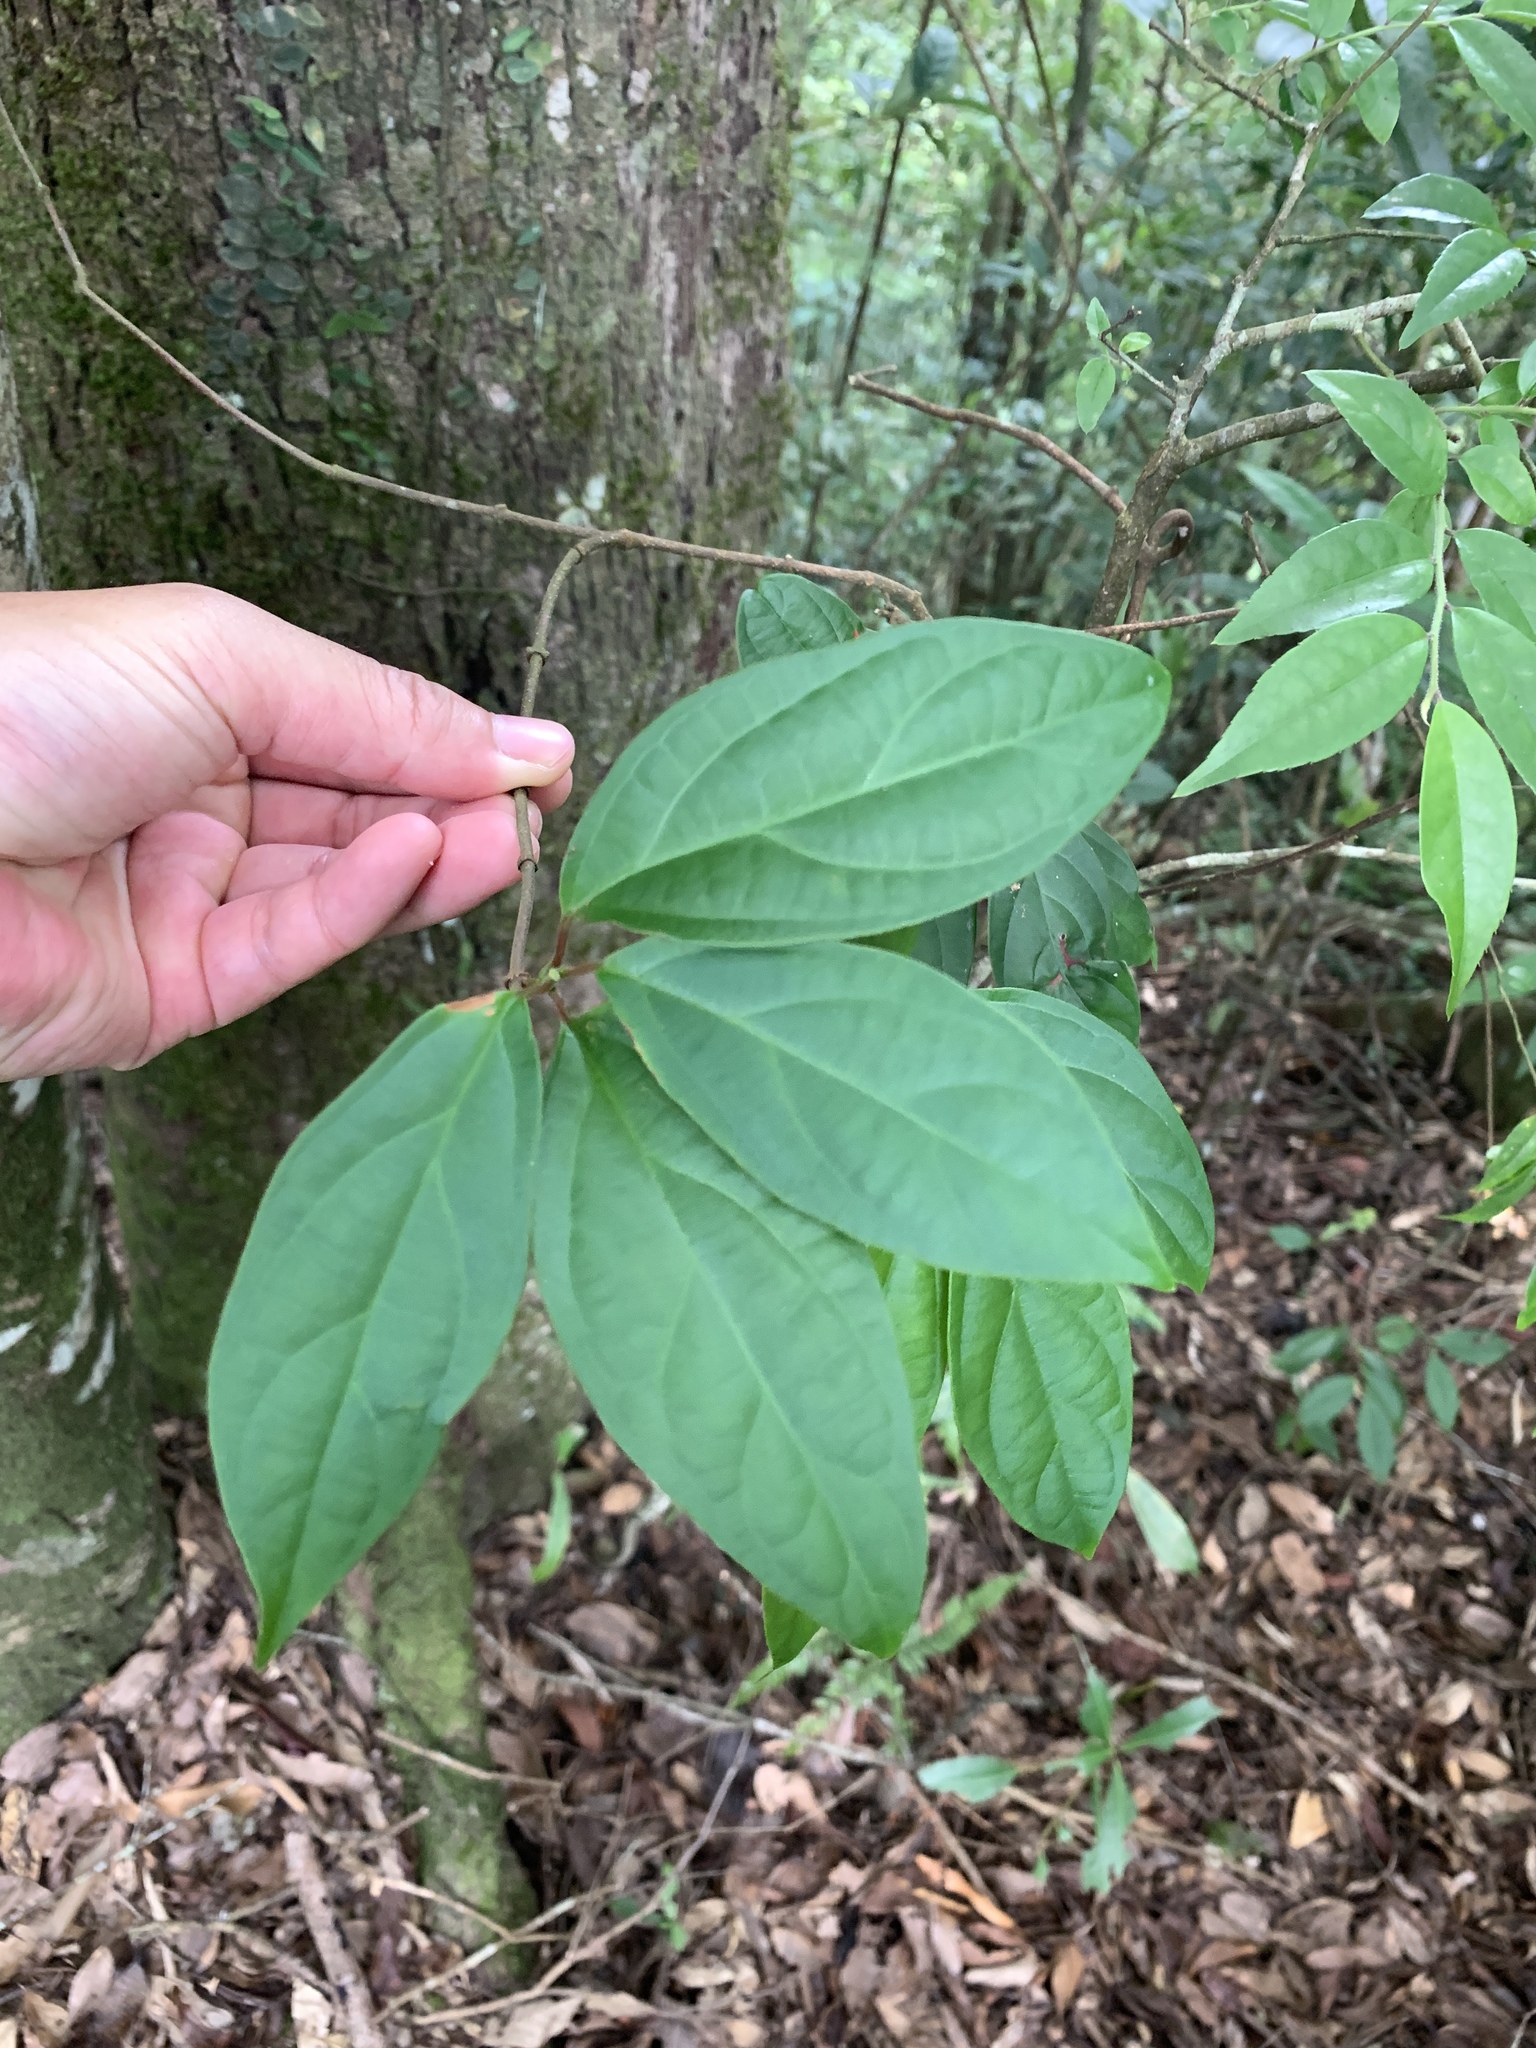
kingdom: Plantae
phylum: Tracheophyta
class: Magnoliopsida
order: Gentianales
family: Apocynaceae
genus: Urceola
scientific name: Urceola micrantha
